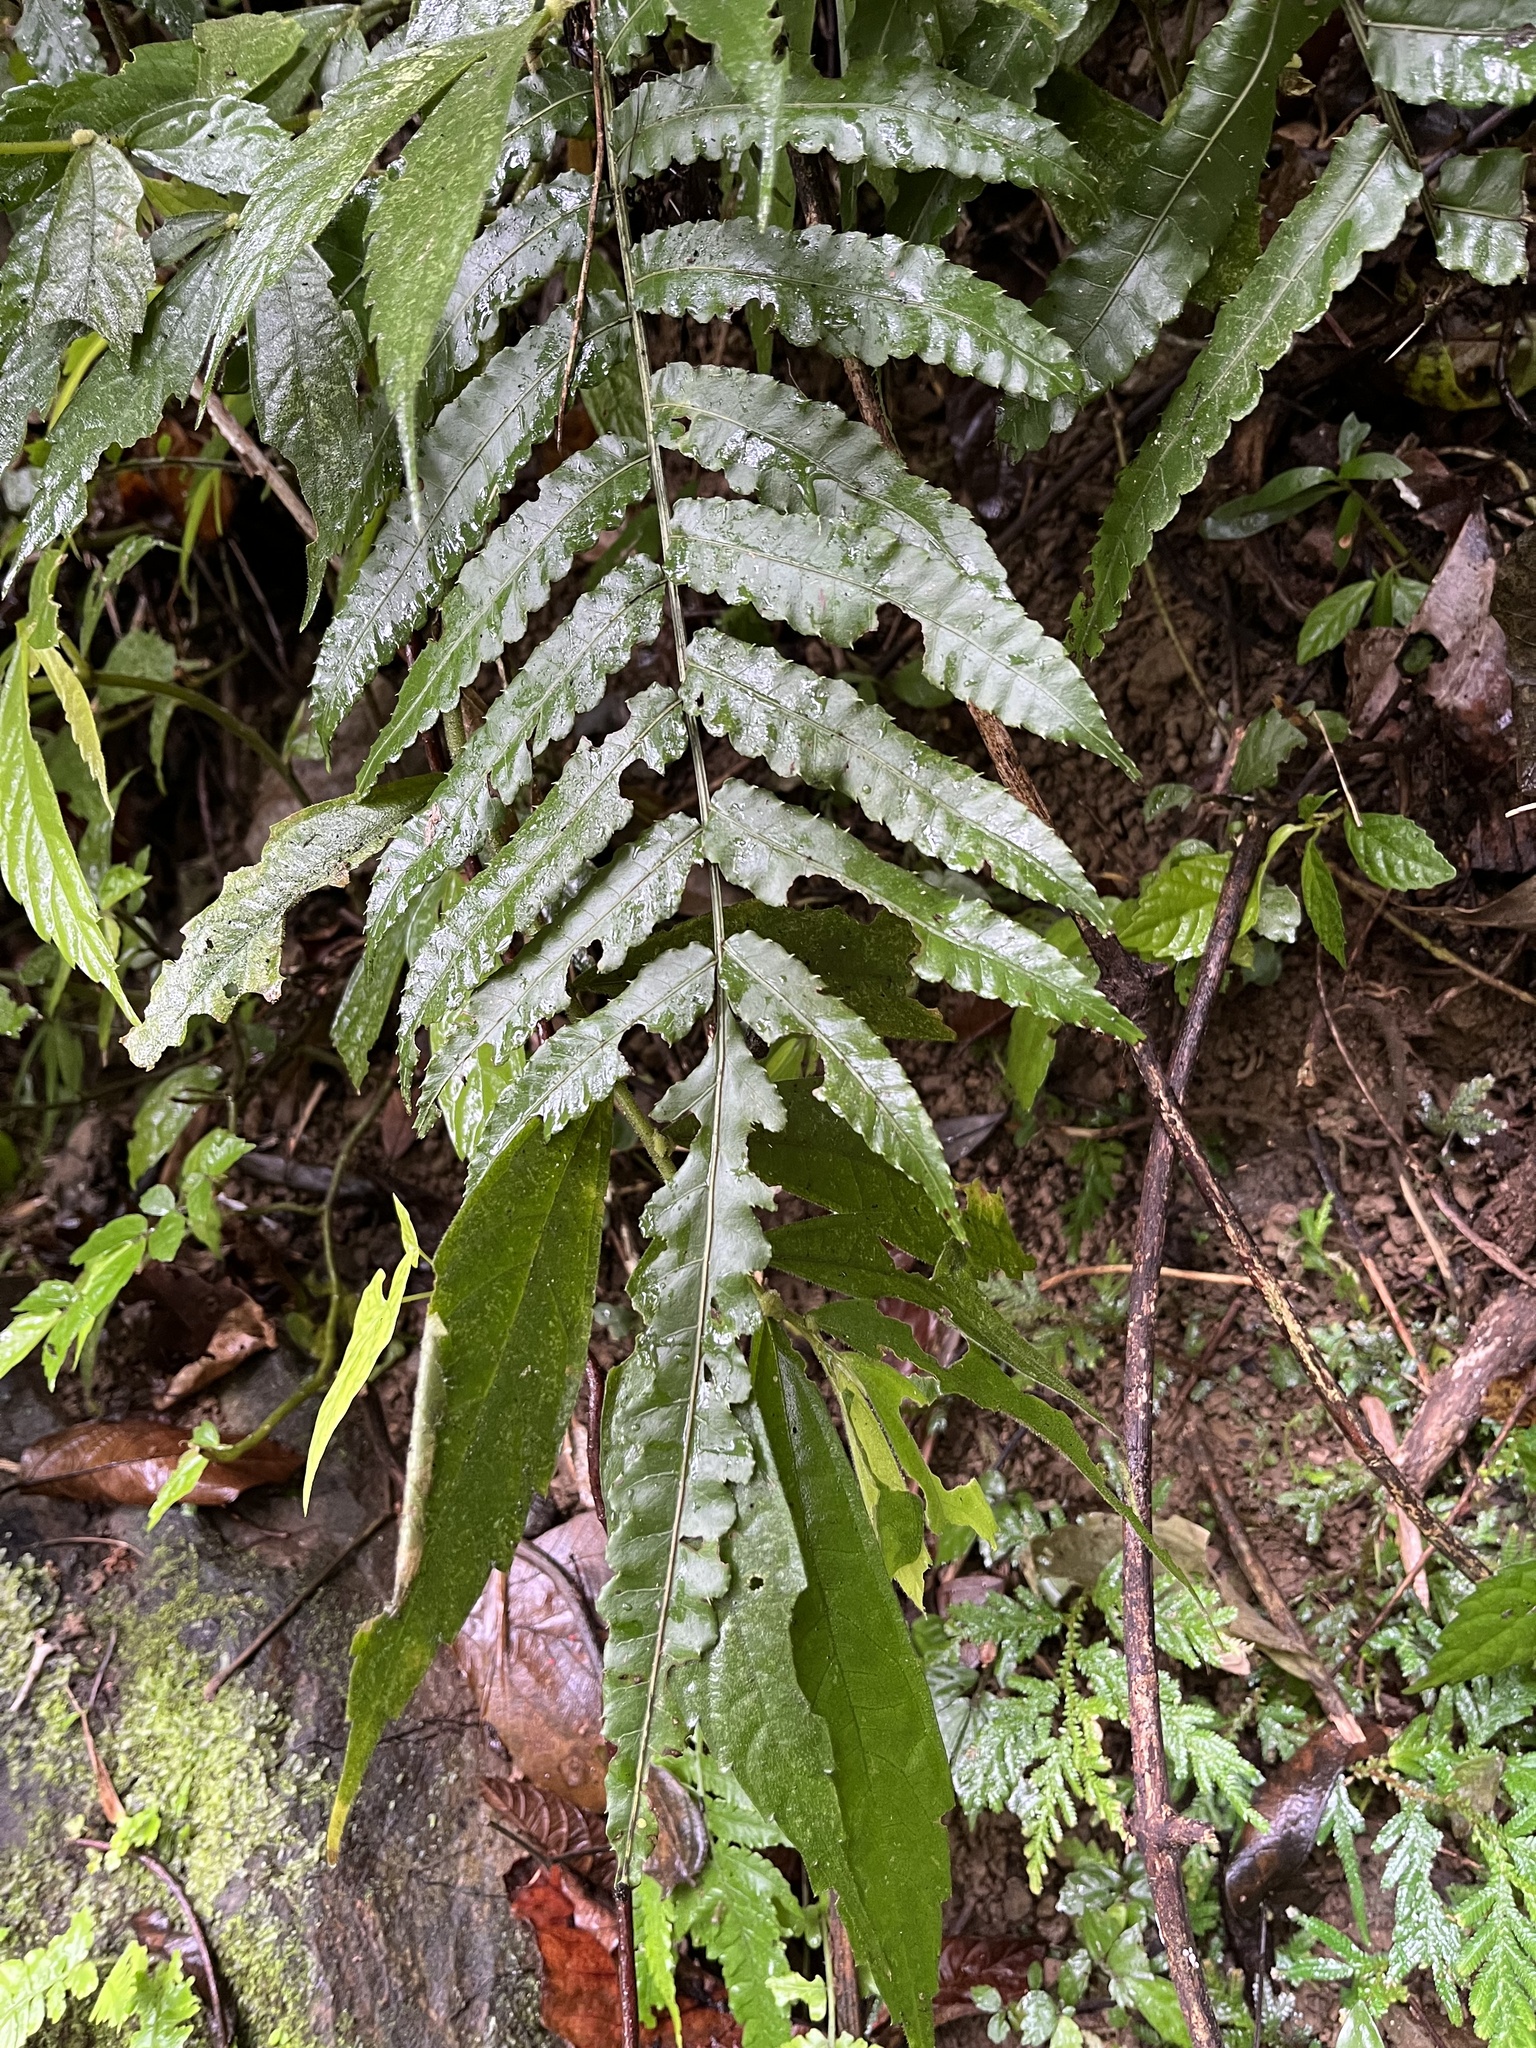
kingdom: Plantae
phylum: Tracheophyta
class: Polypodiopsida
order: Polypodiales
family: Dryopteridaceae
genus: Bolbitis
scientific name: Bolbitis subcordata
